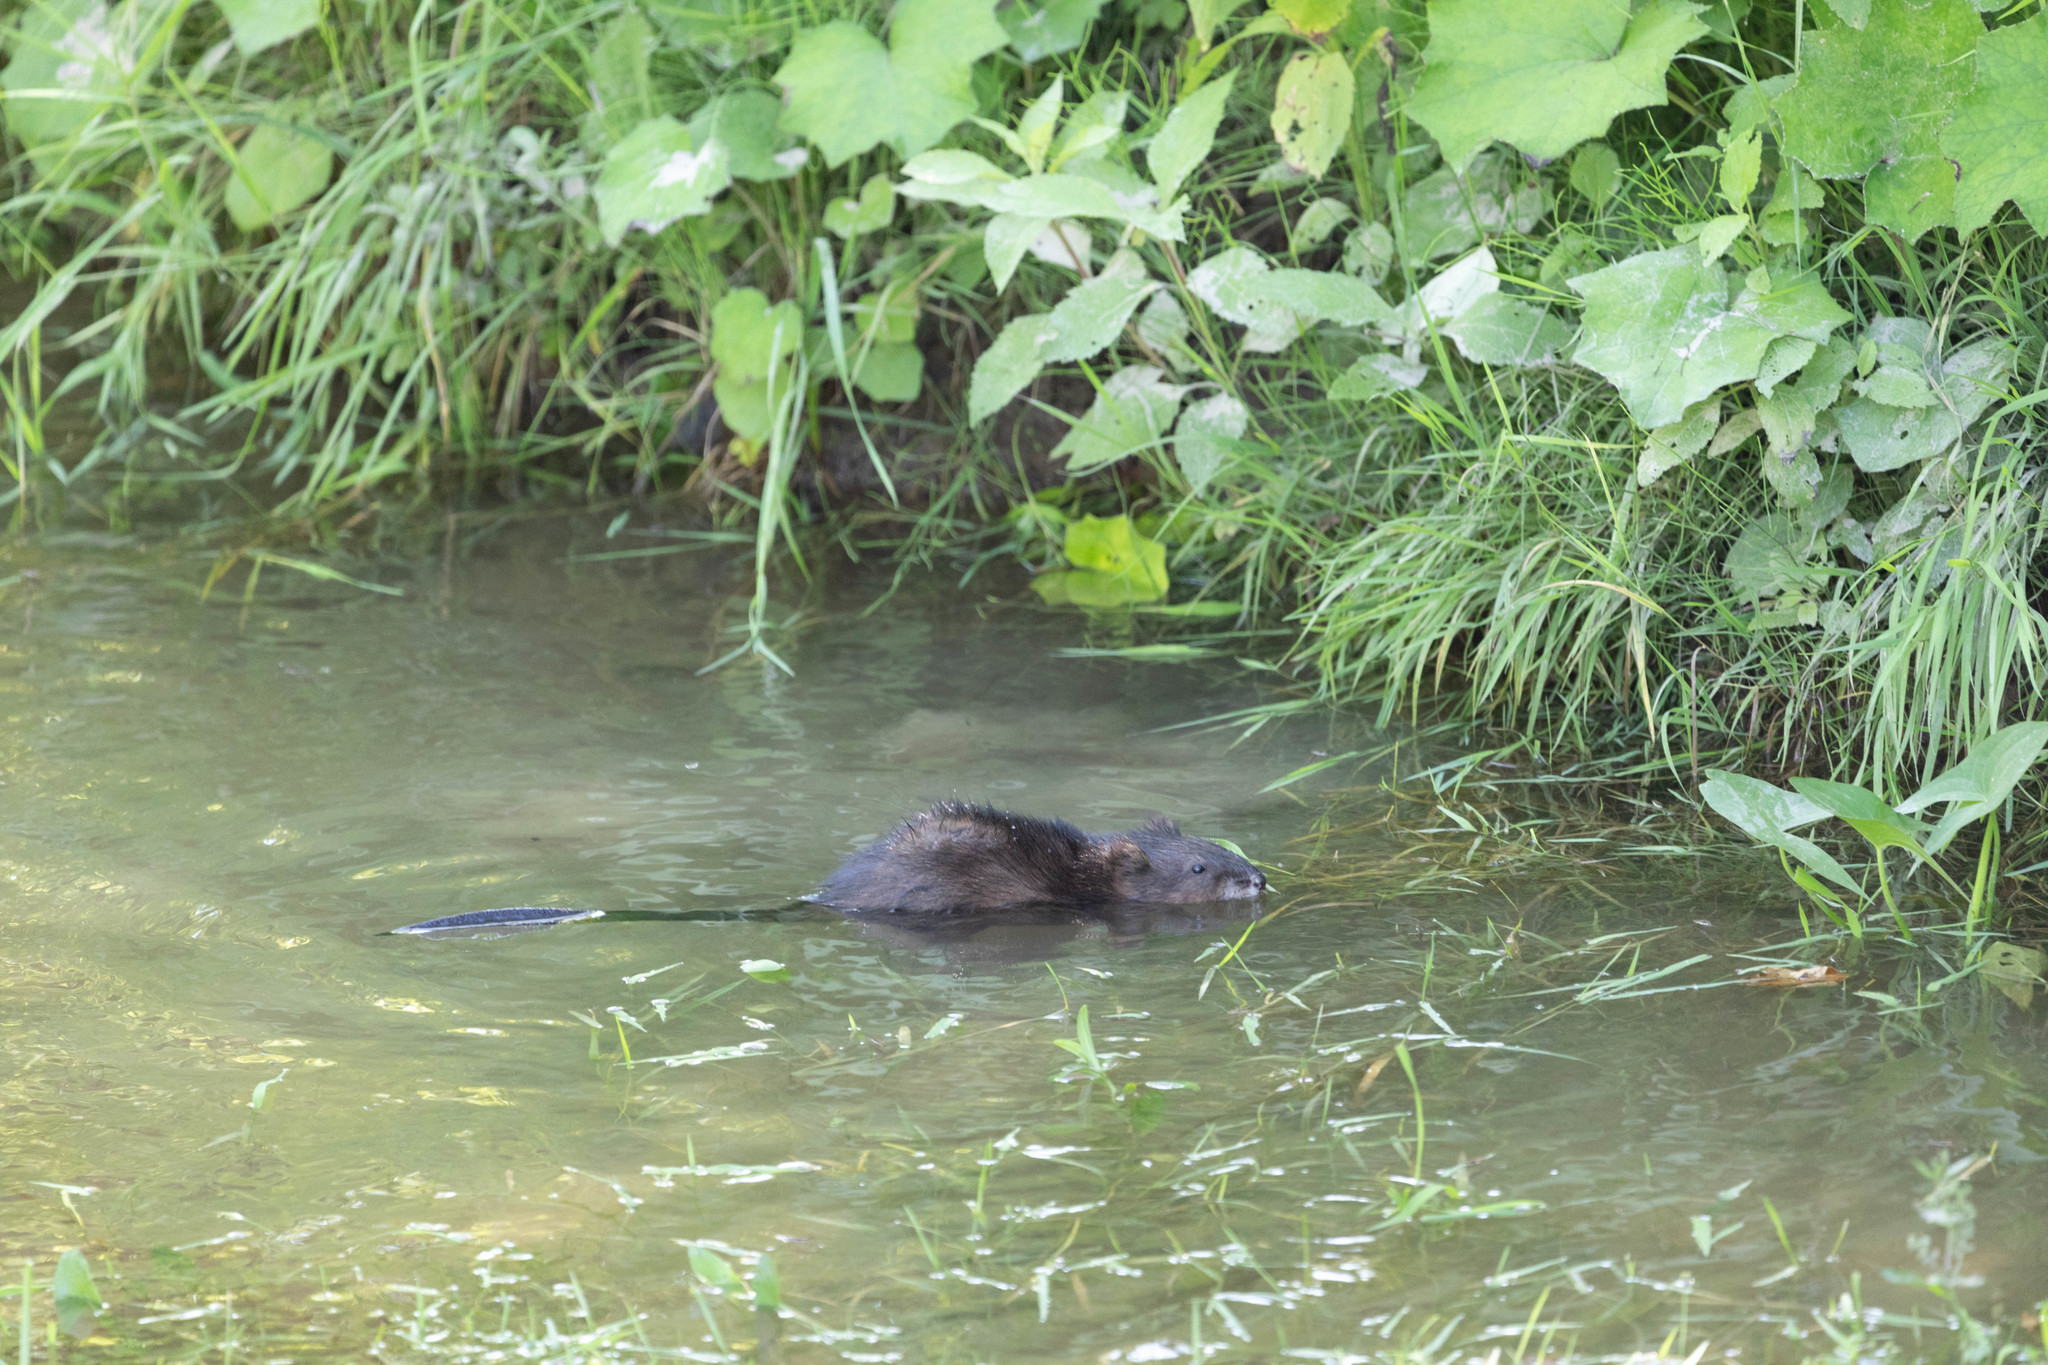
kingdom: Animalia
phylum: Chordata
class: Mammalia
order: Rodentia
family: Cricetidae
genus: Ondatra
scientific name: Ondatra zibethicus
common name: Muskrat
